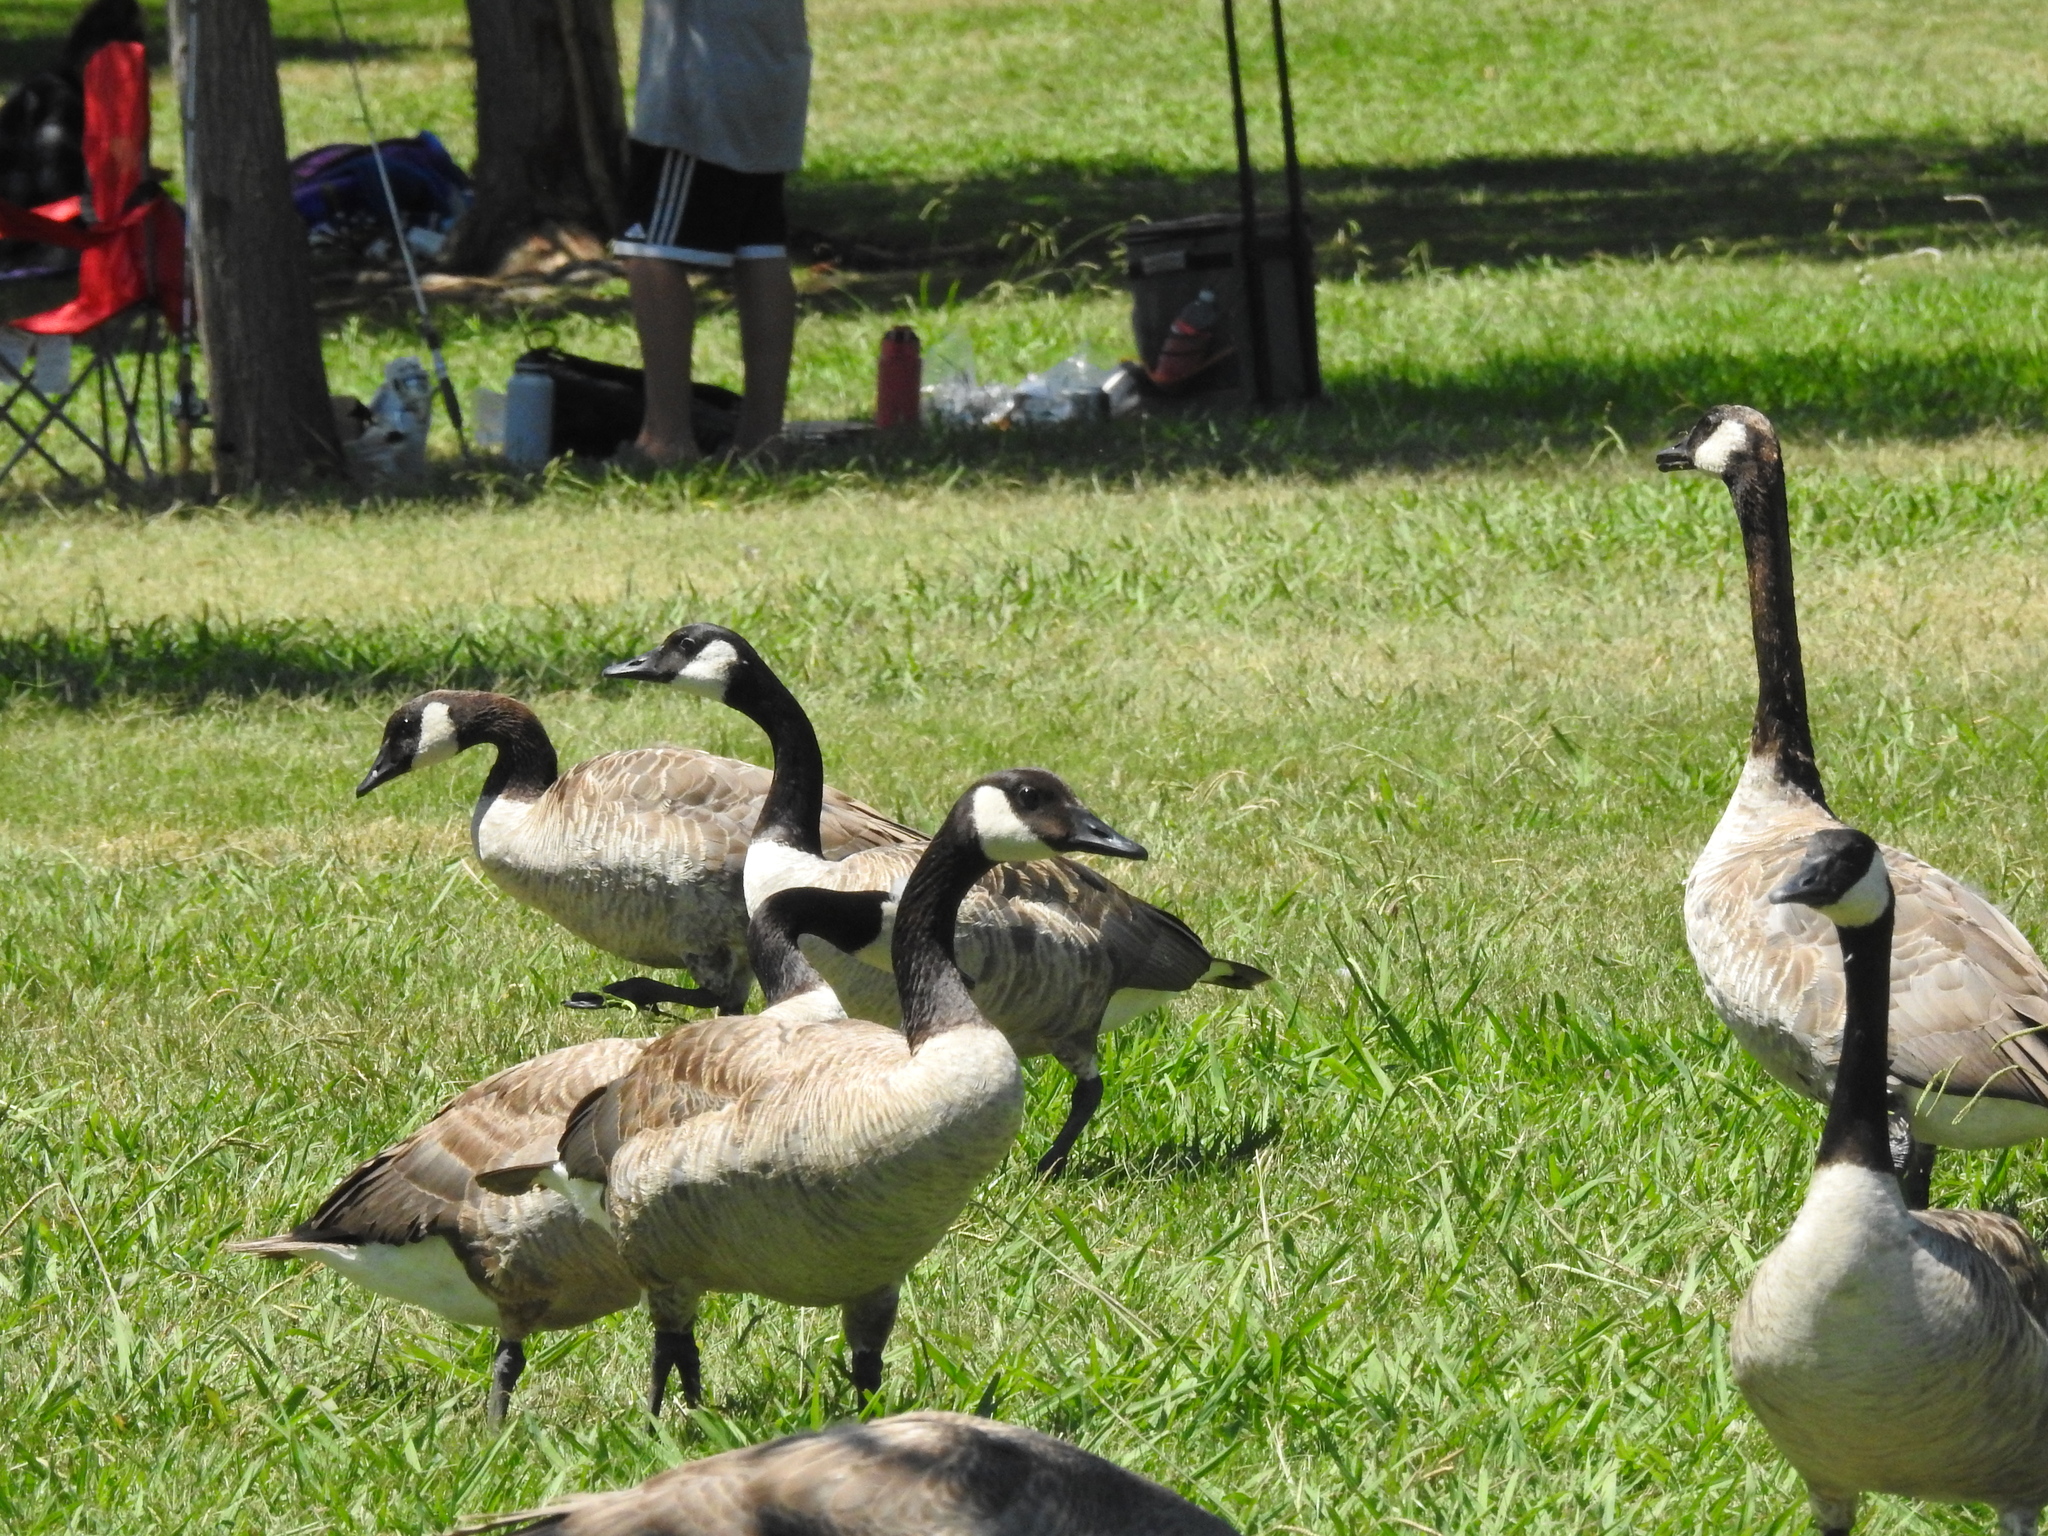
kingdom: Animalia
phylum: Chordata
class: Aves
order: Anseriformes
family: Anatidae
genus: Branta
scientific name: Branta canadensis
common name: Canada goose
